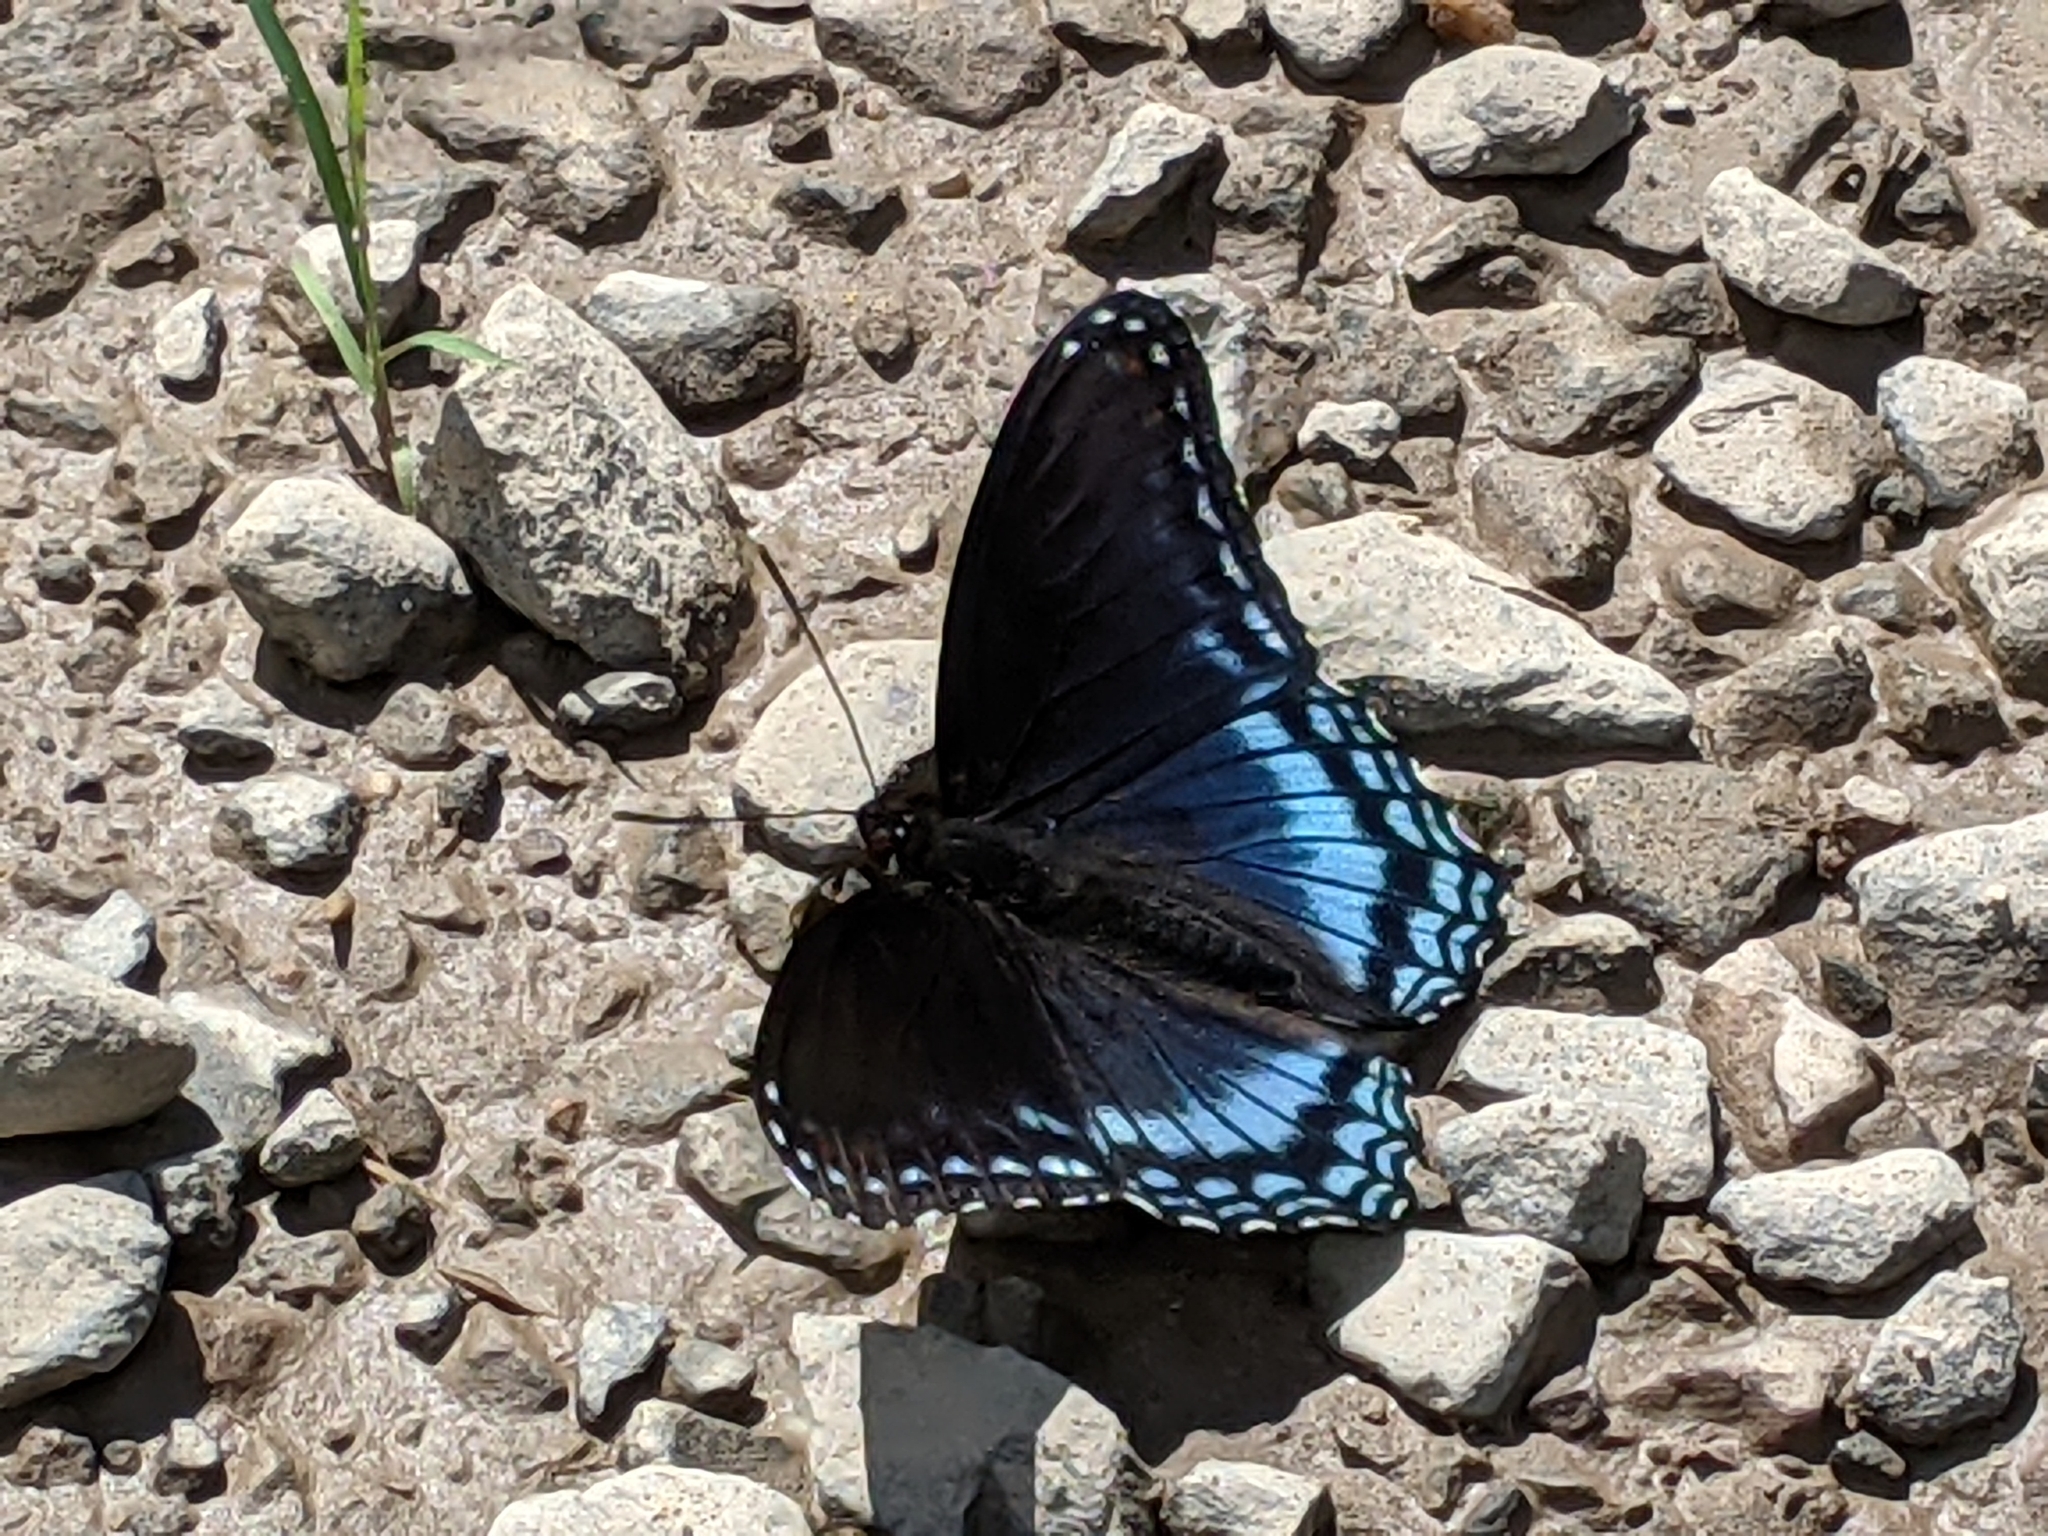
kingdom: Animalia
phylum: Arthropoda
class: Insecta
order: Lepidoptera
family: Nymphalidae
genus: Limenitis
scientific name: Limenitis astyanax
